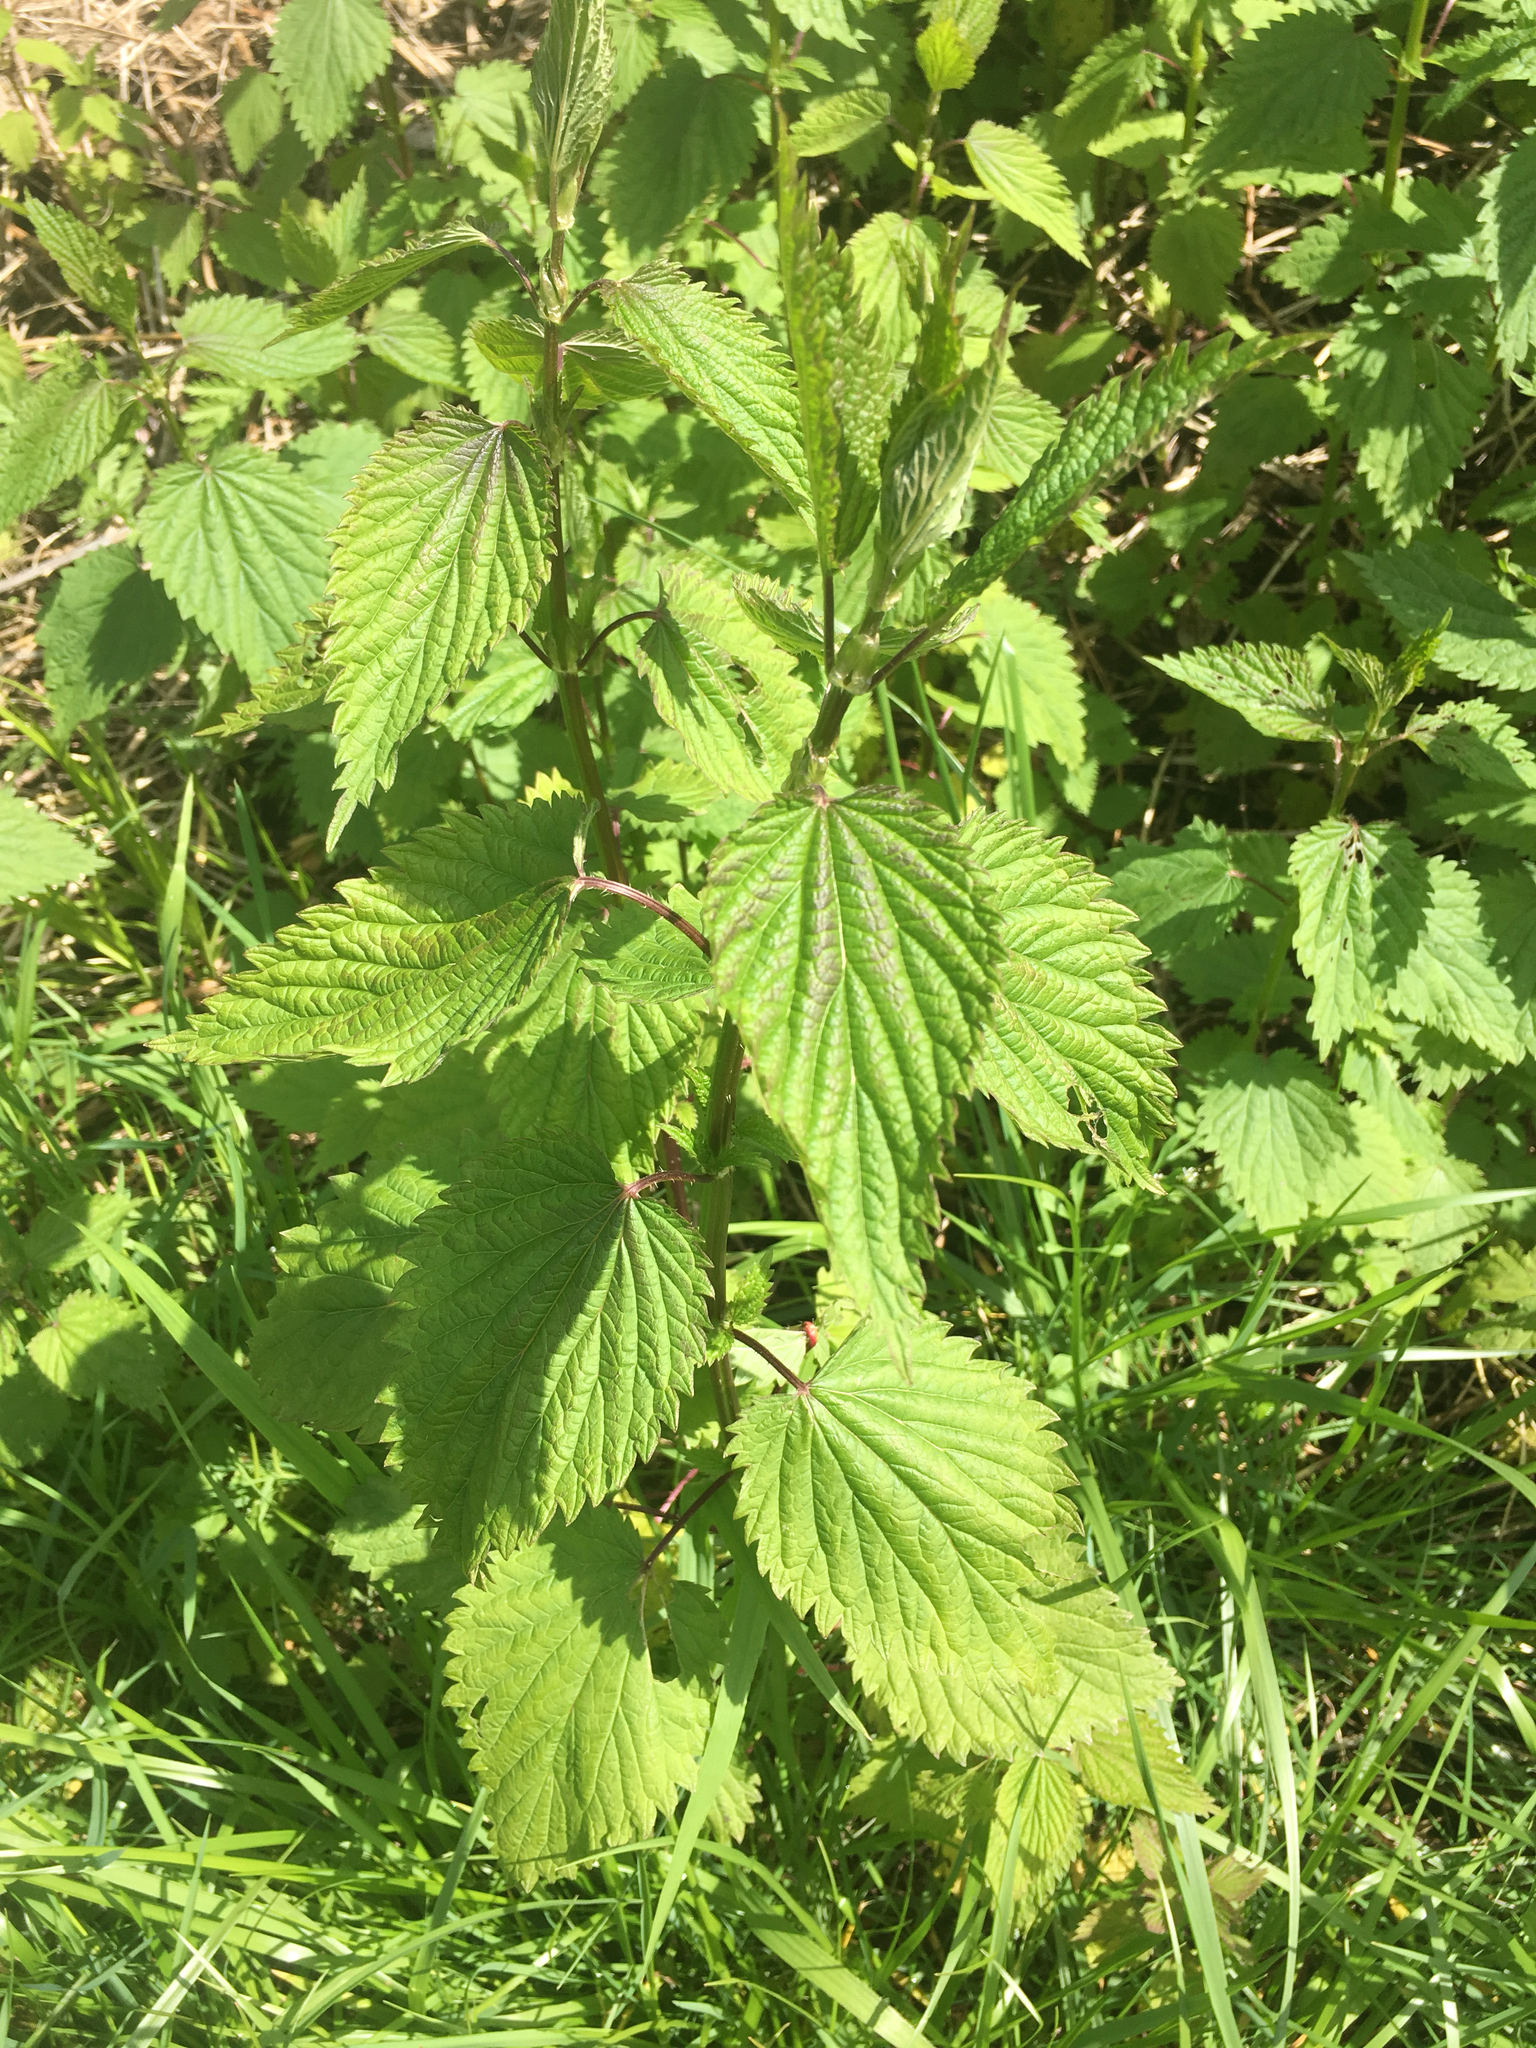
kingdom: Plantae
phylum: Tracheophyta
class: Magnoliopsida
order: Rosales
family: Urticaceae
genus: Urtica
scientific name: Urtica dioica
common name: Common nettle
